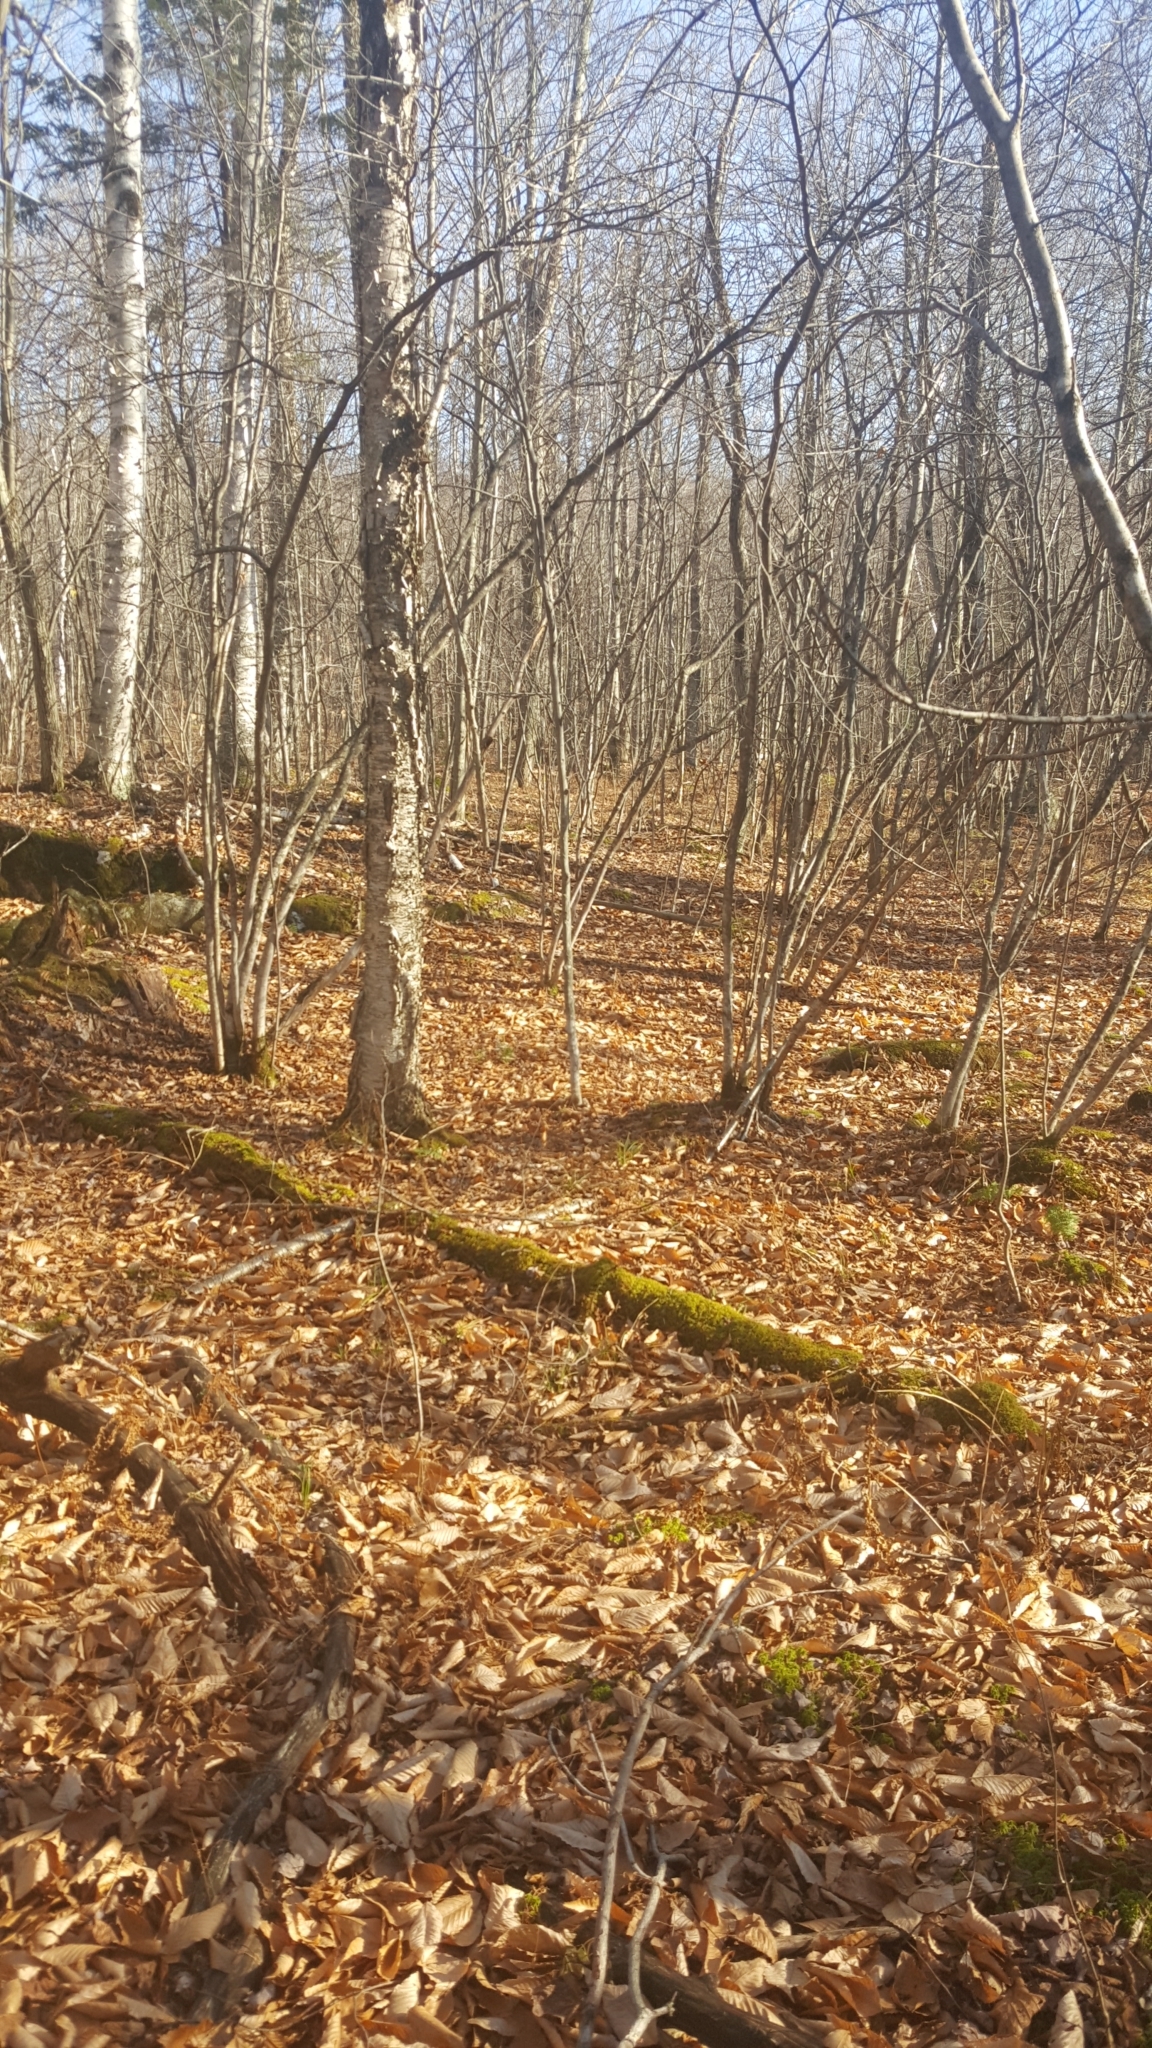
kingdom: Plantae
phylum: Tracheophyta
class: Magnoliopsida
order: Fagales
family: Betulaceae
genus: Betula
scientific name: Betula alleghaniensis
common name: Yellow birch
